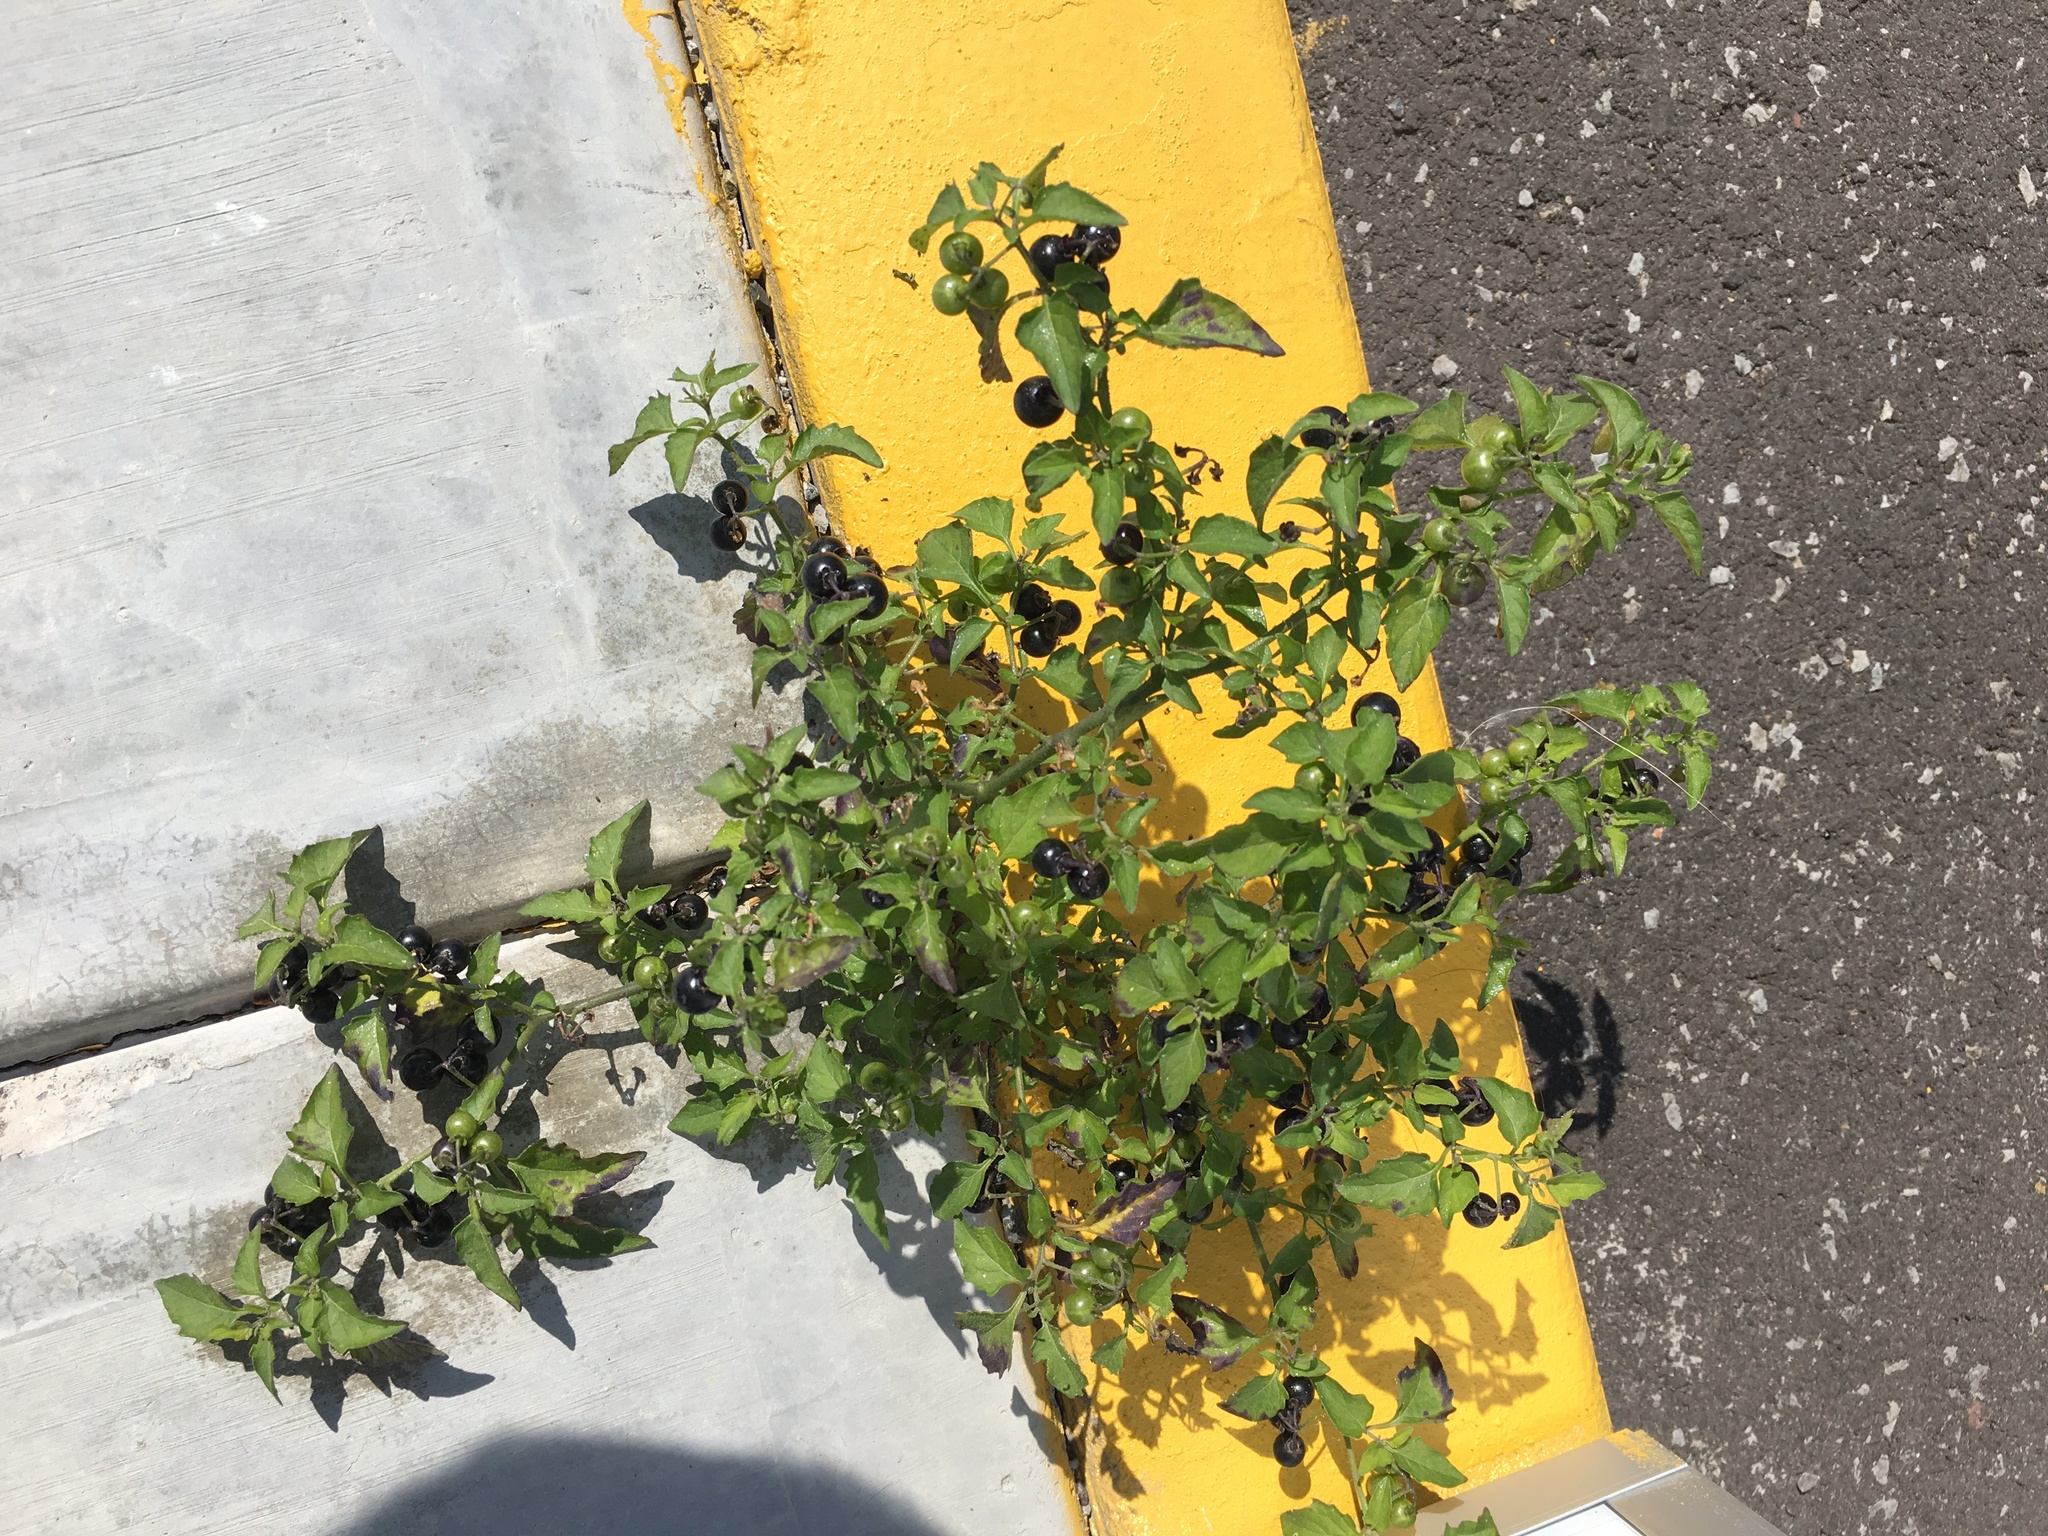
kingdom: Plantae
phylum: Tracheophyta
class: Magnoliopsida
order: Solanales
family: Solanaceae
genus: Solanum
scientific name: Solanum americanum
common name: American black nightshade
